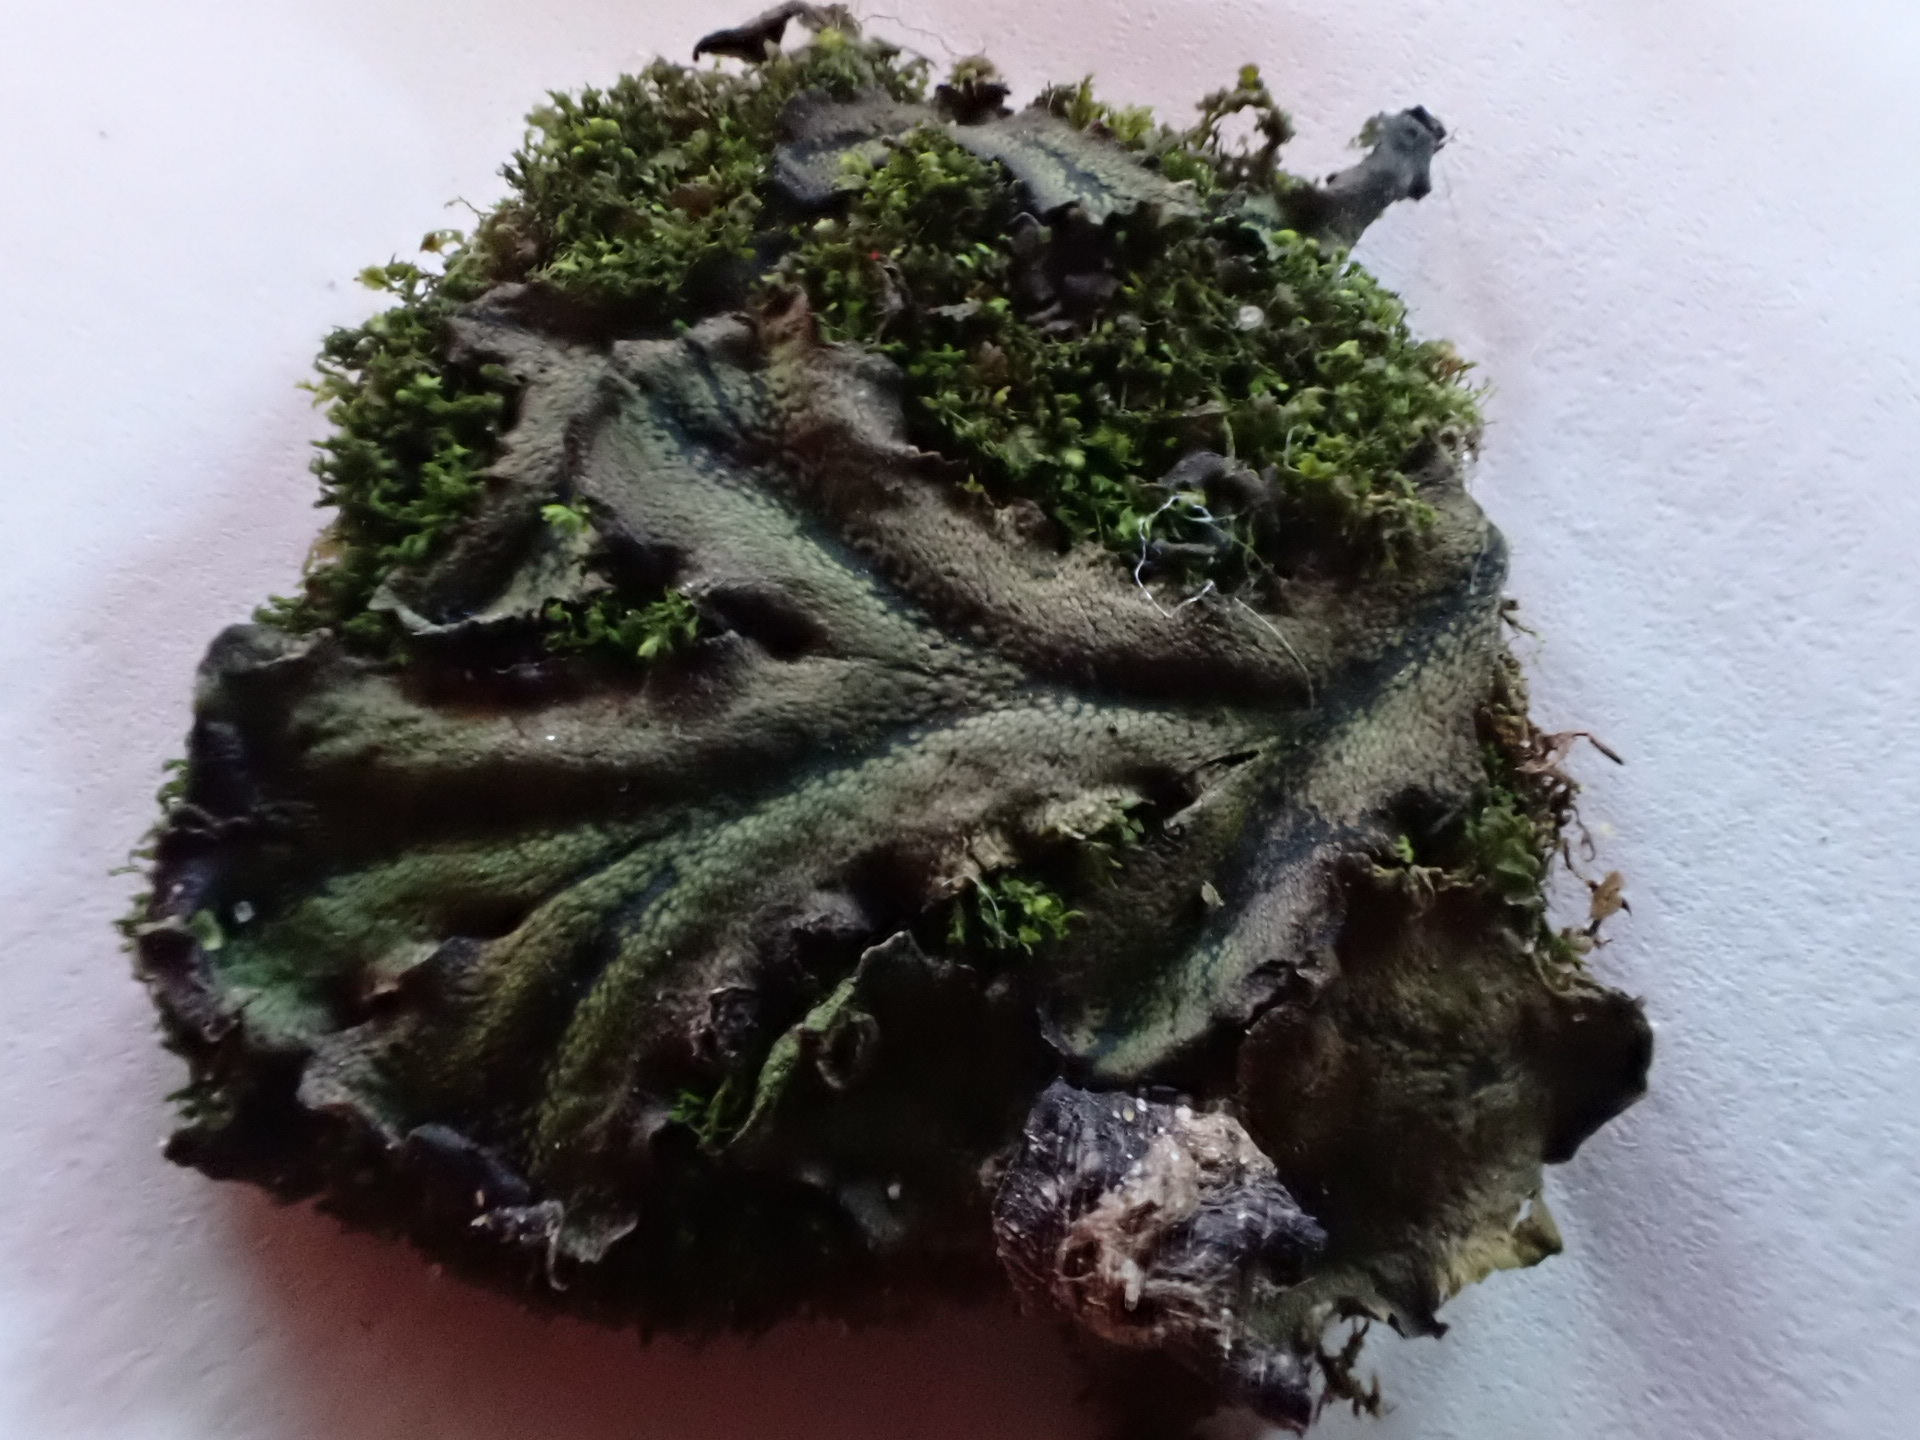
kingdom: Plantae
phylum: Marchantiophyta
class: Marchantiopsida
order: Marchantiales
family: Marchantiaceae
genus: Marchantia
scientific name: Marchantia polymorpha
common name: Common liverwort
